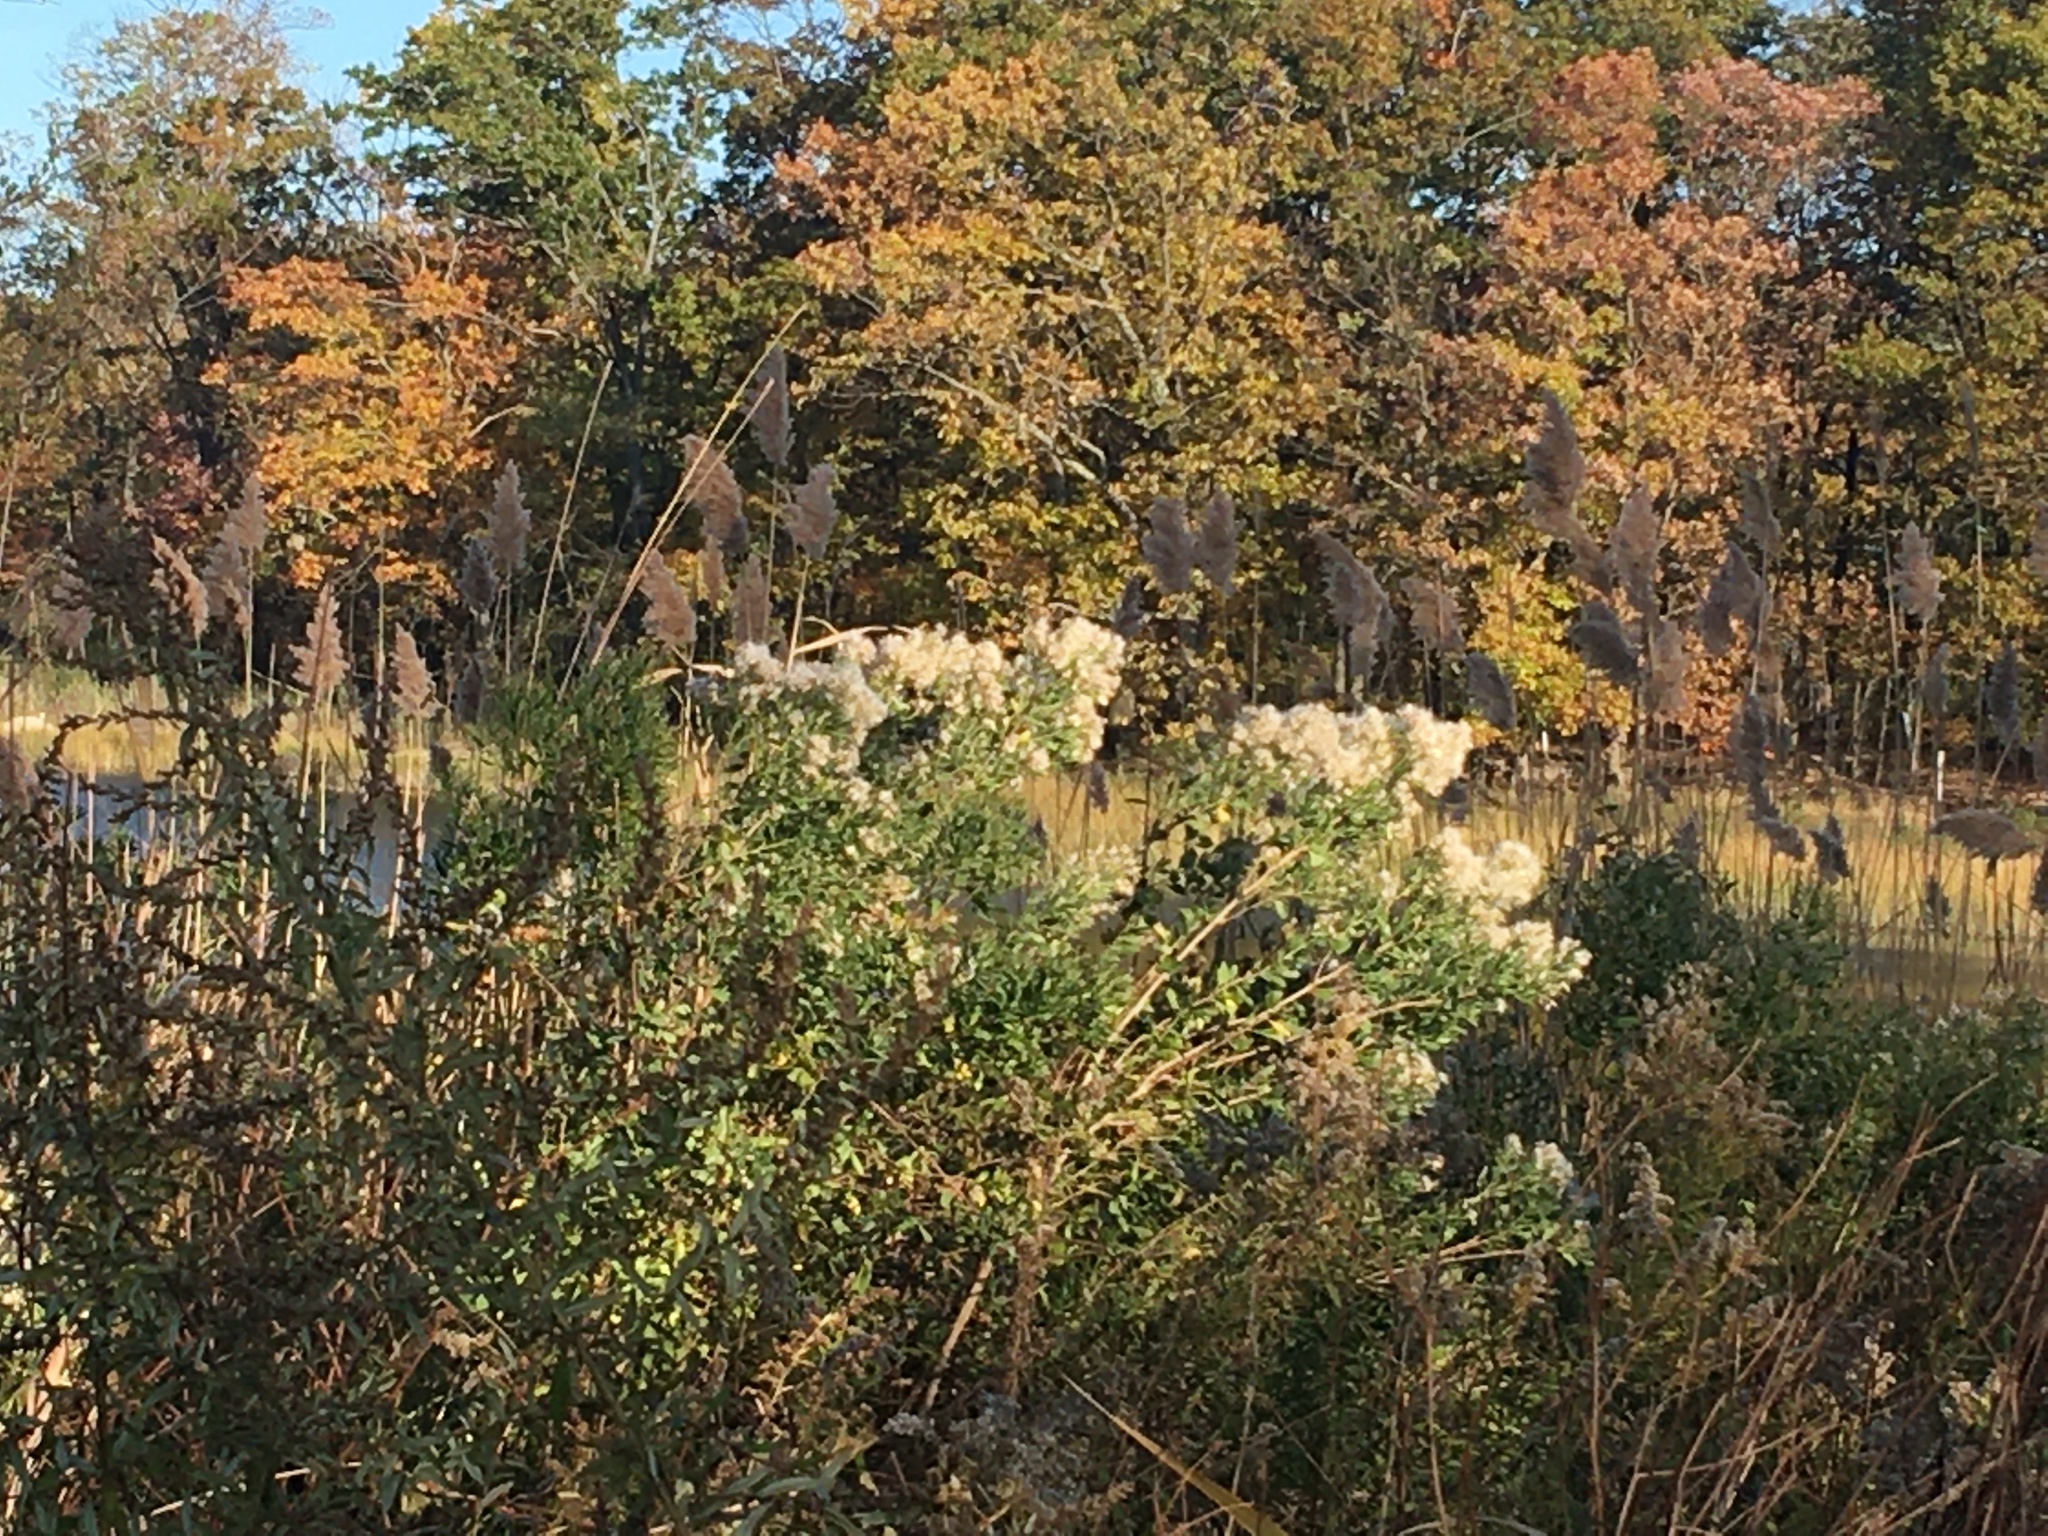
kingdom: Plantae
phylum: Tracheophyta
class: Magnoliopsida
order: Asterales
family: Asteraceae
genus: Baccharis
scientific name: Baccharis halimifolia
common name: Eastern baccharis
